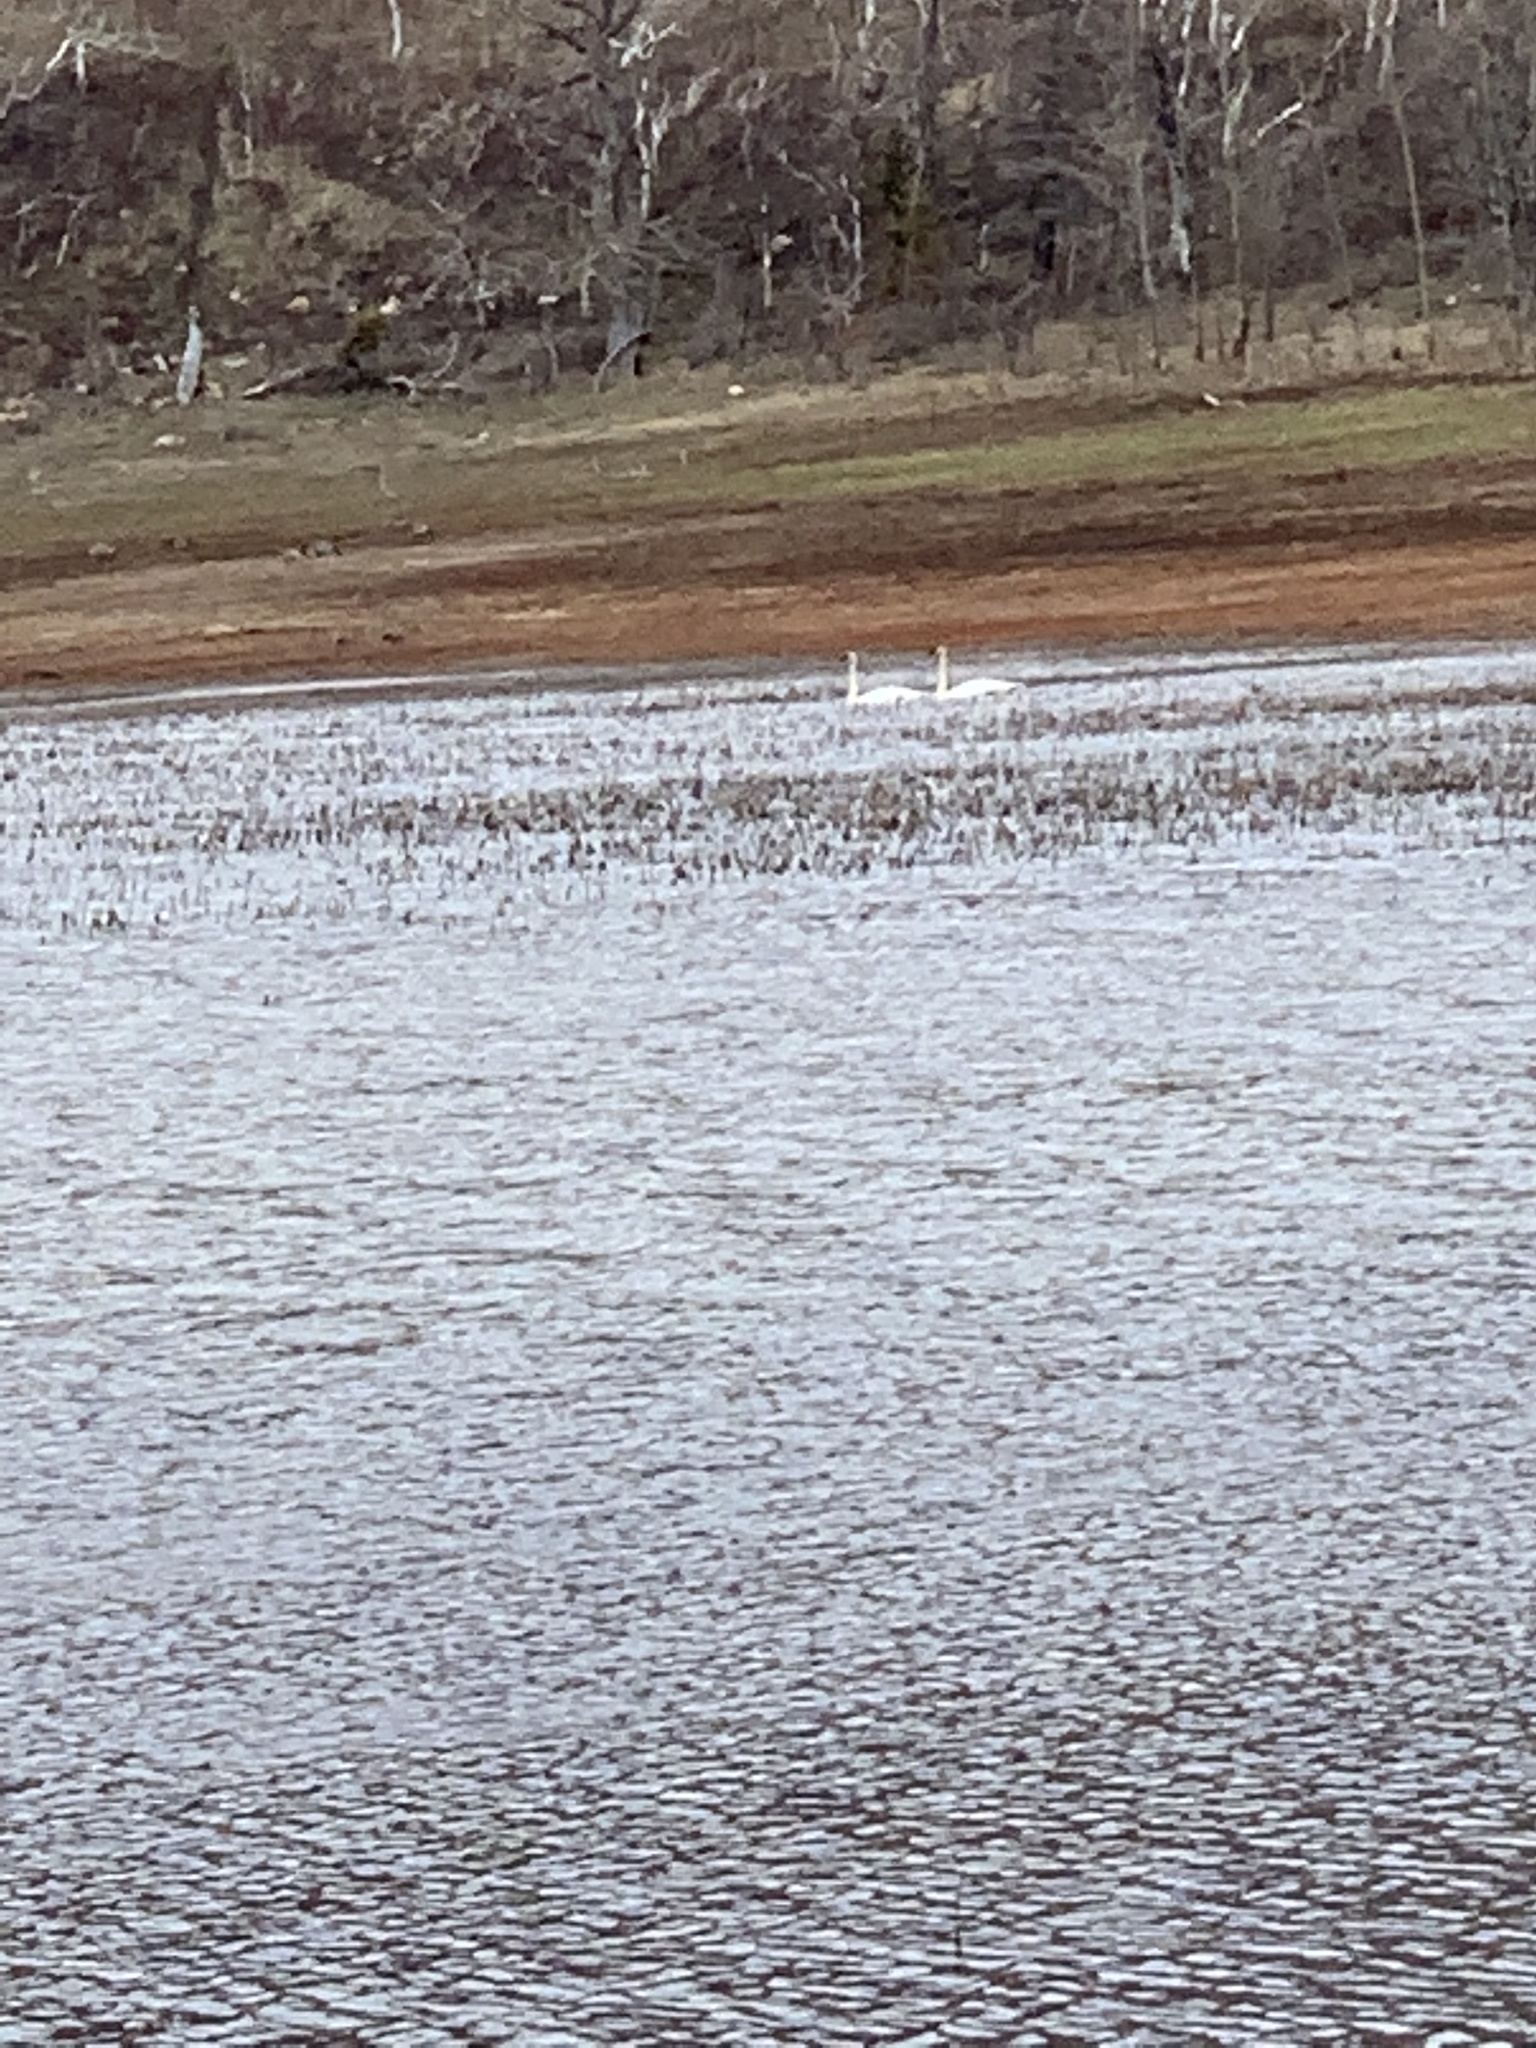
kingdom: Animalia
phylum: Chordata
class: Aves
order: Anseriformes
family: Anatidae
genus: Cygnus
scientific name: Cygnus buccinator
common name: Trumpeter swan
